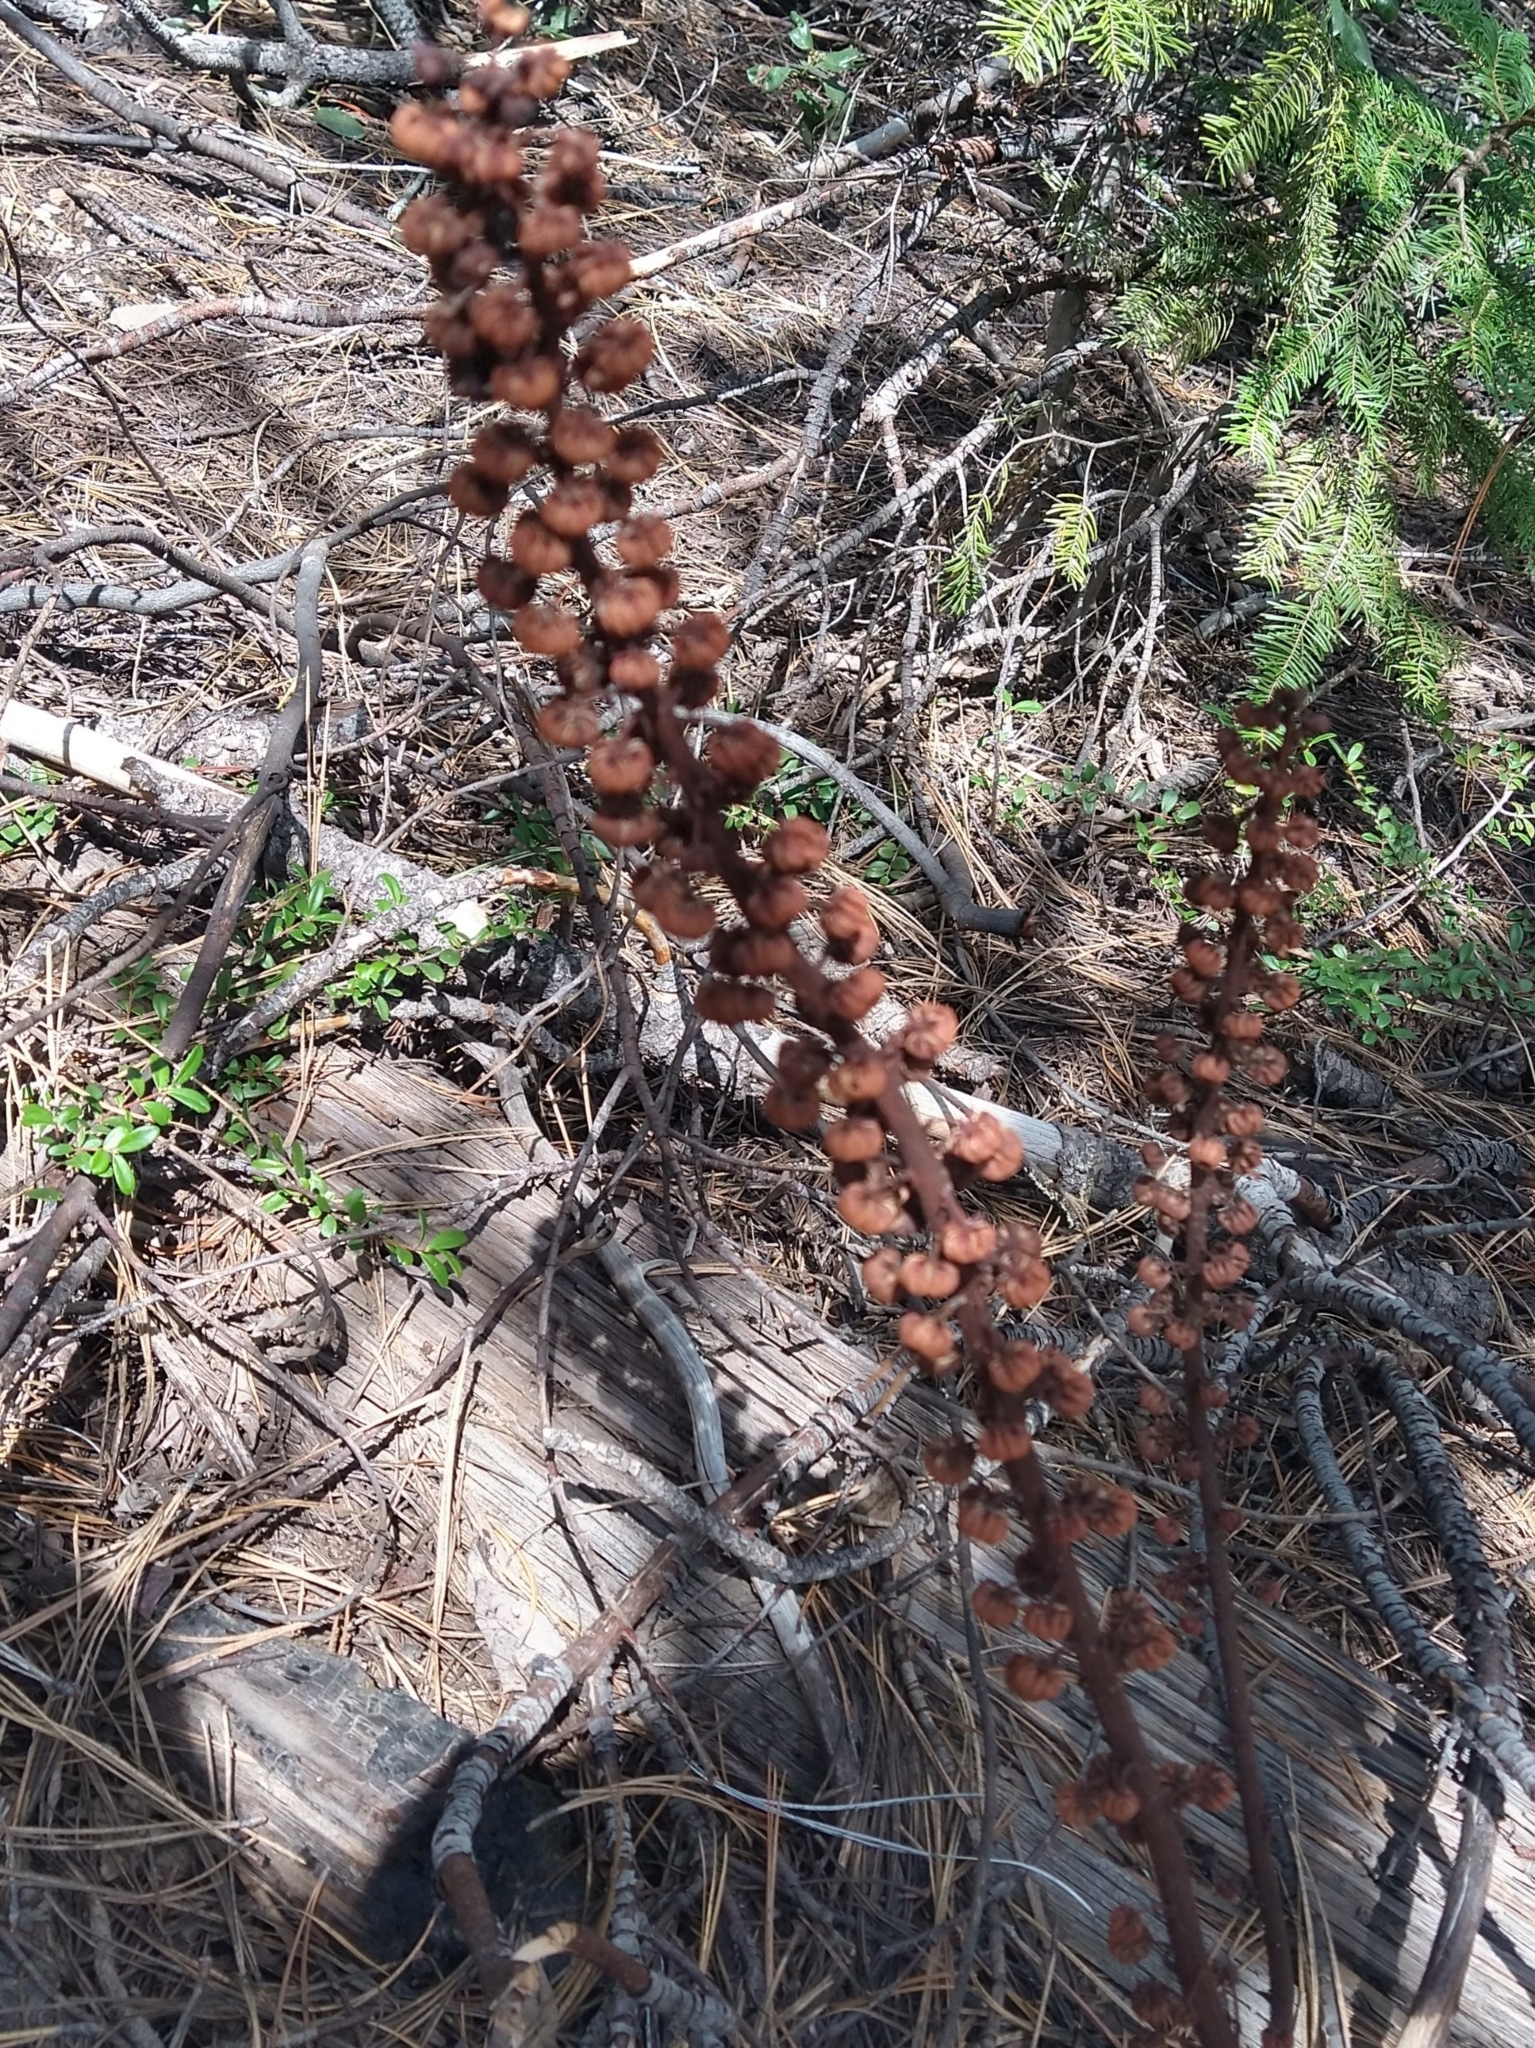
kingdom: Plantae
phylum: Tracheophyta
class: Magnoliopsida
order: Ericales
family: Ericaceae
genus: Pterospora
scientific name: Pterospora andromedea
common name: Giant bird's-nest
